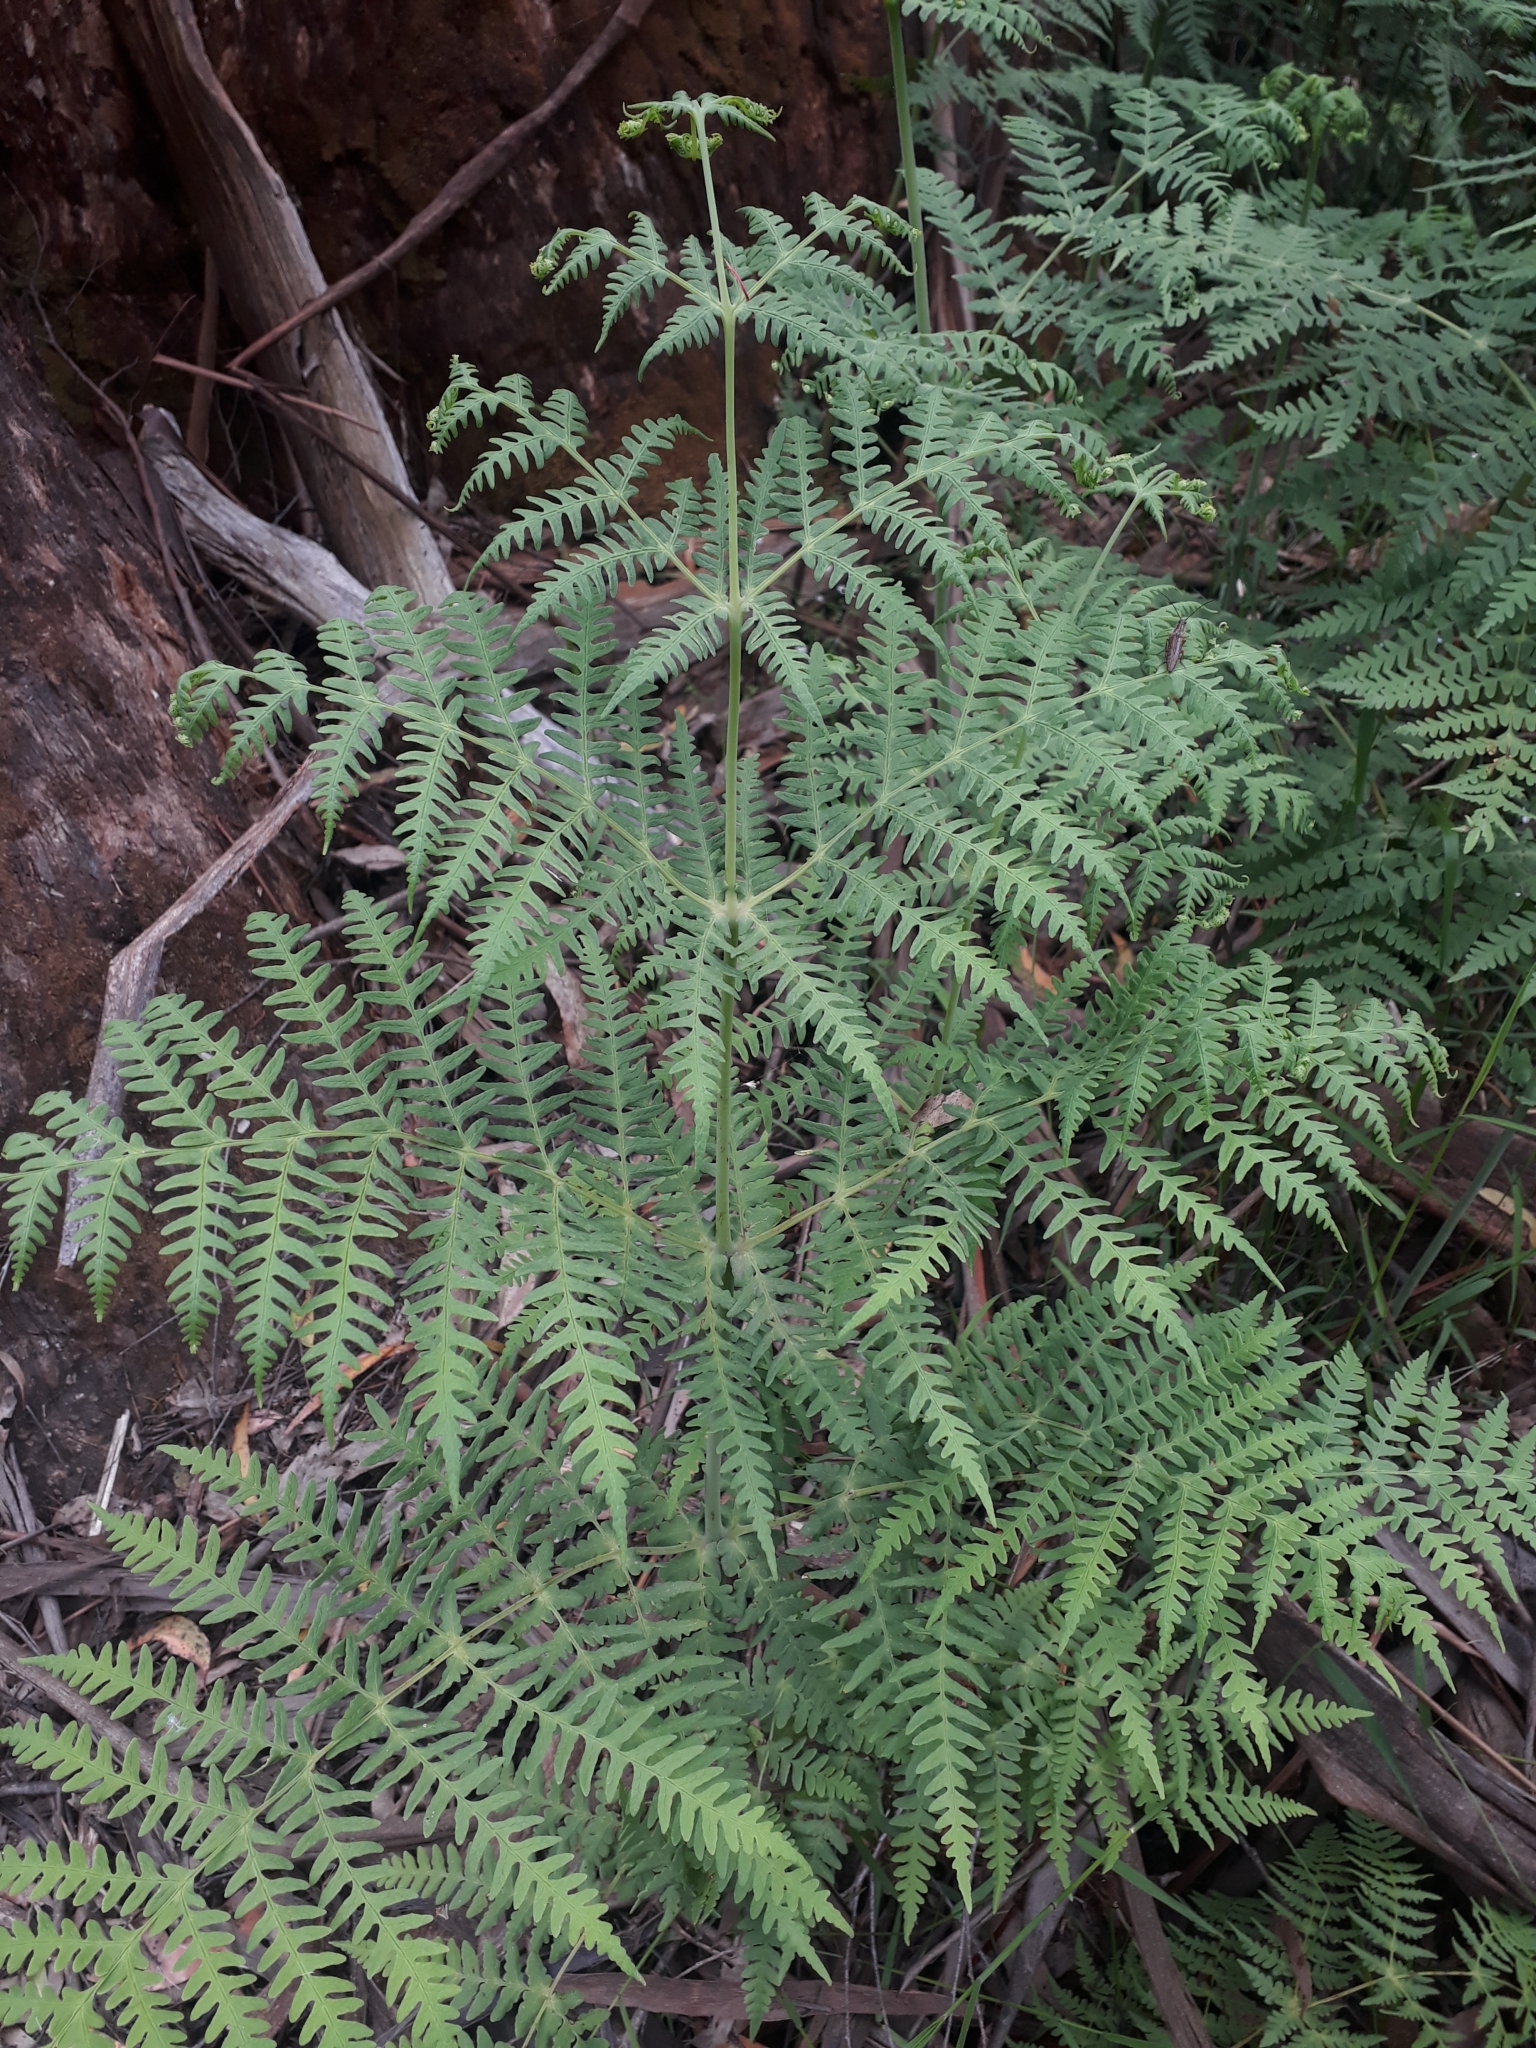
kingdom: Plantae
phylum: Tracheophyta
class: Polypodiopsida
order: Polypodiales
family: Dennstaedtiaceae
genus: Histiopteris
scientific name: Histiopteris incisa
